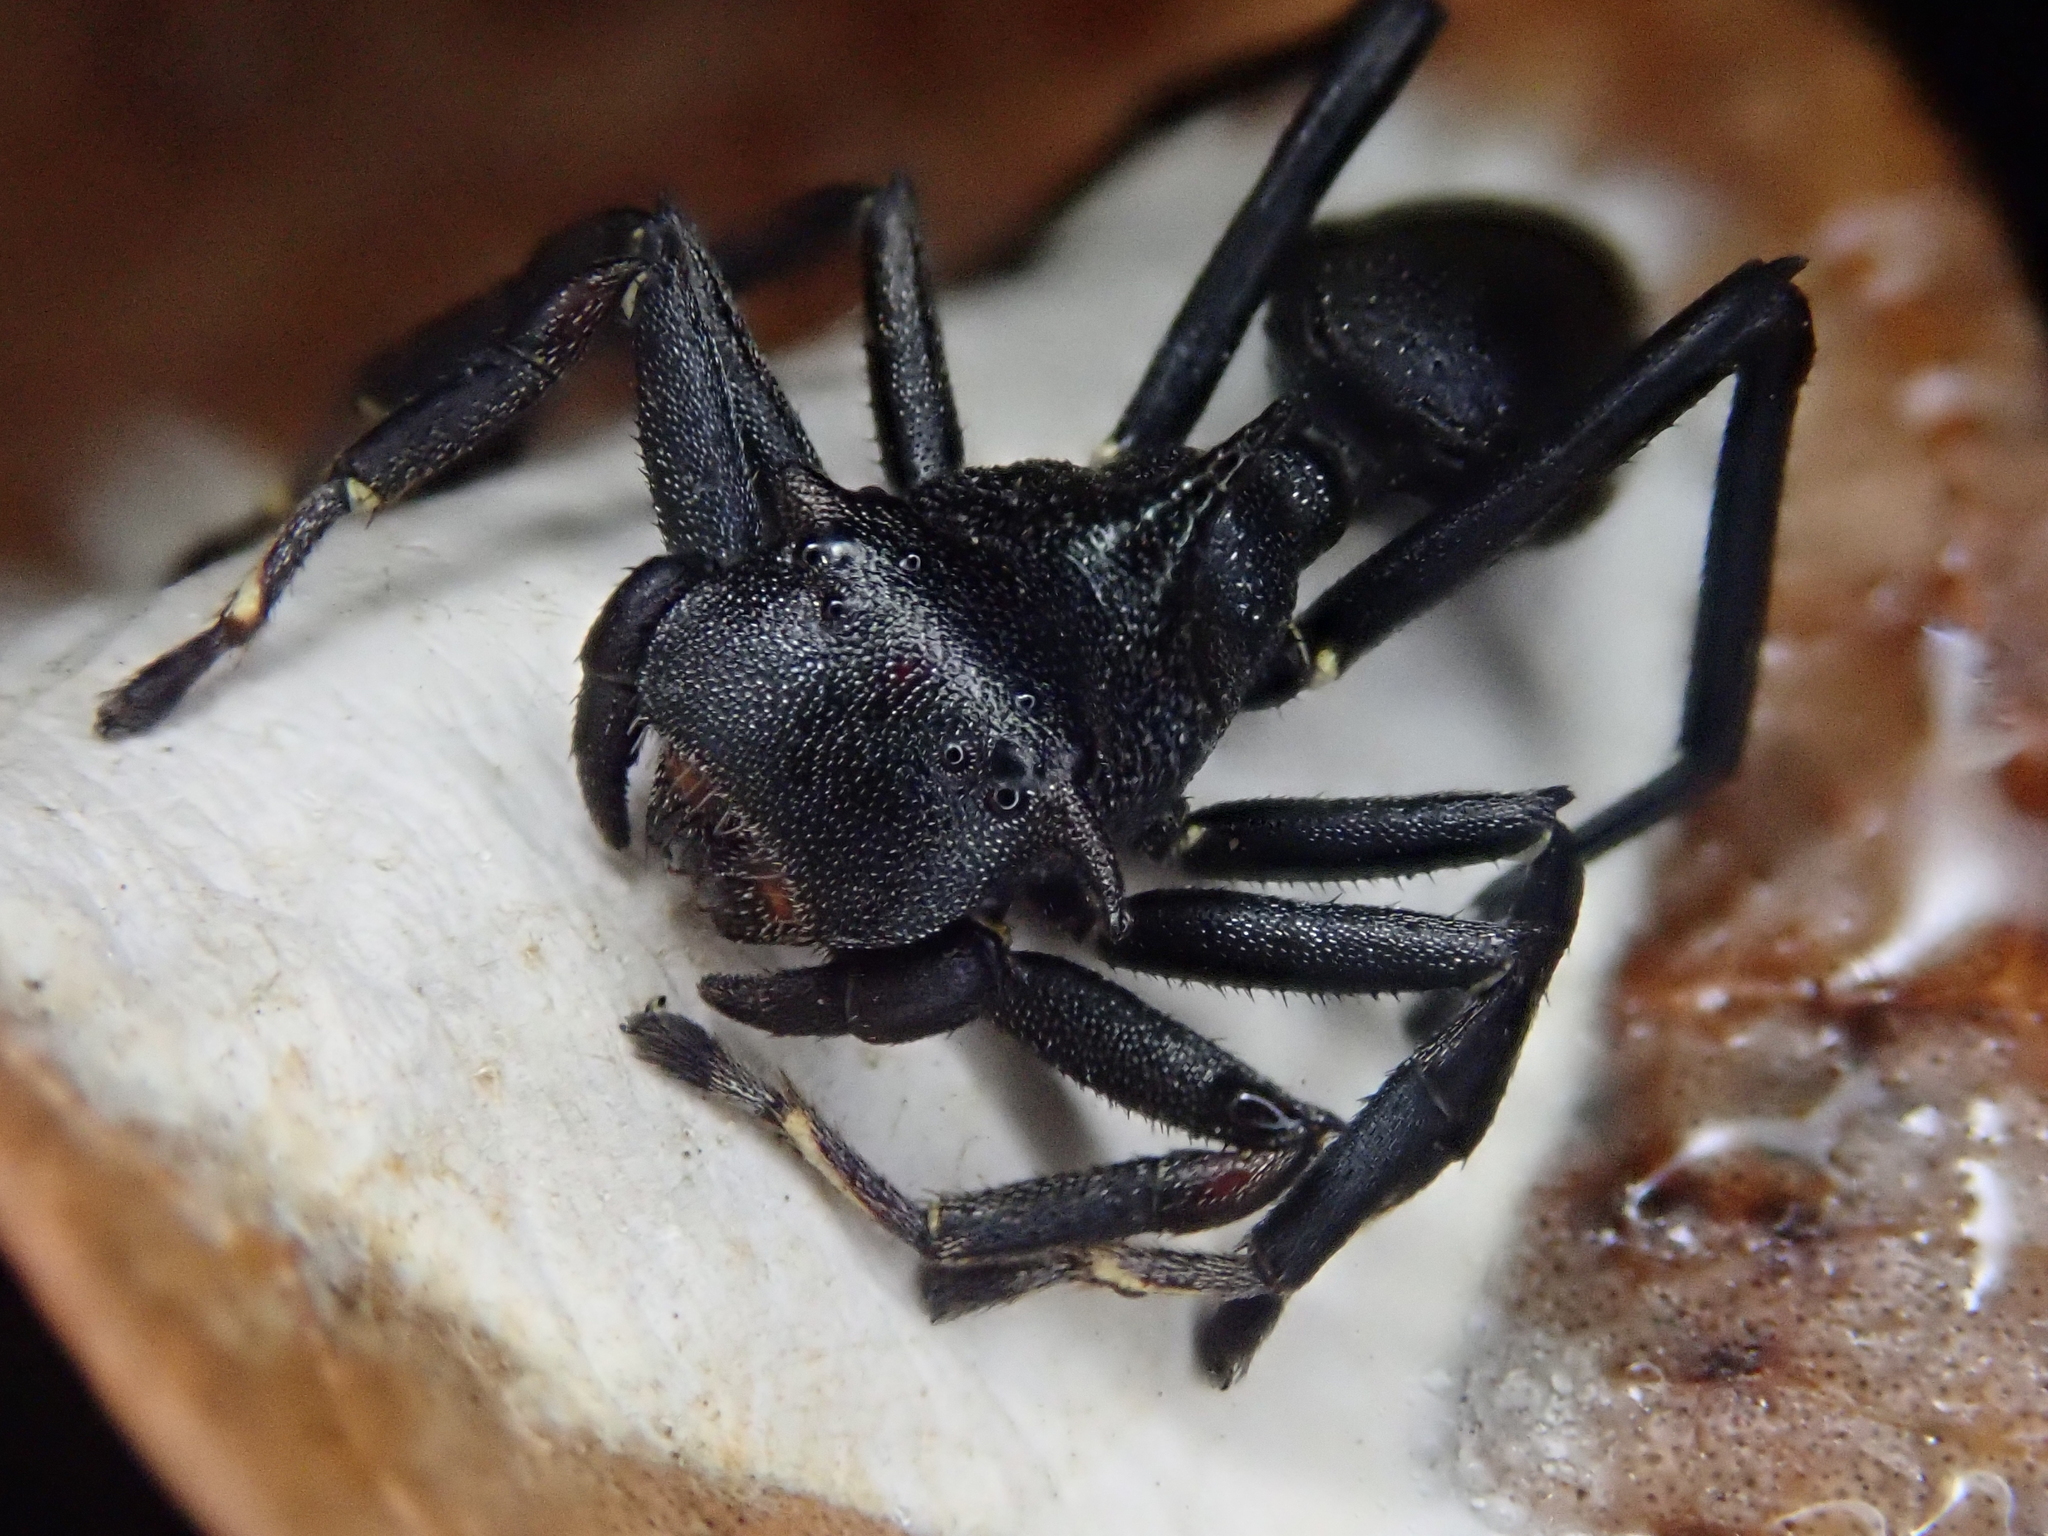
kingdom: Animalia
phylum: Arthropoda
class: Arachnida
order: Araneae
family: Thomisidae
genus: Aphantochilus
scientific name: Aphantochilus rogersi
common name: Crab spiders
